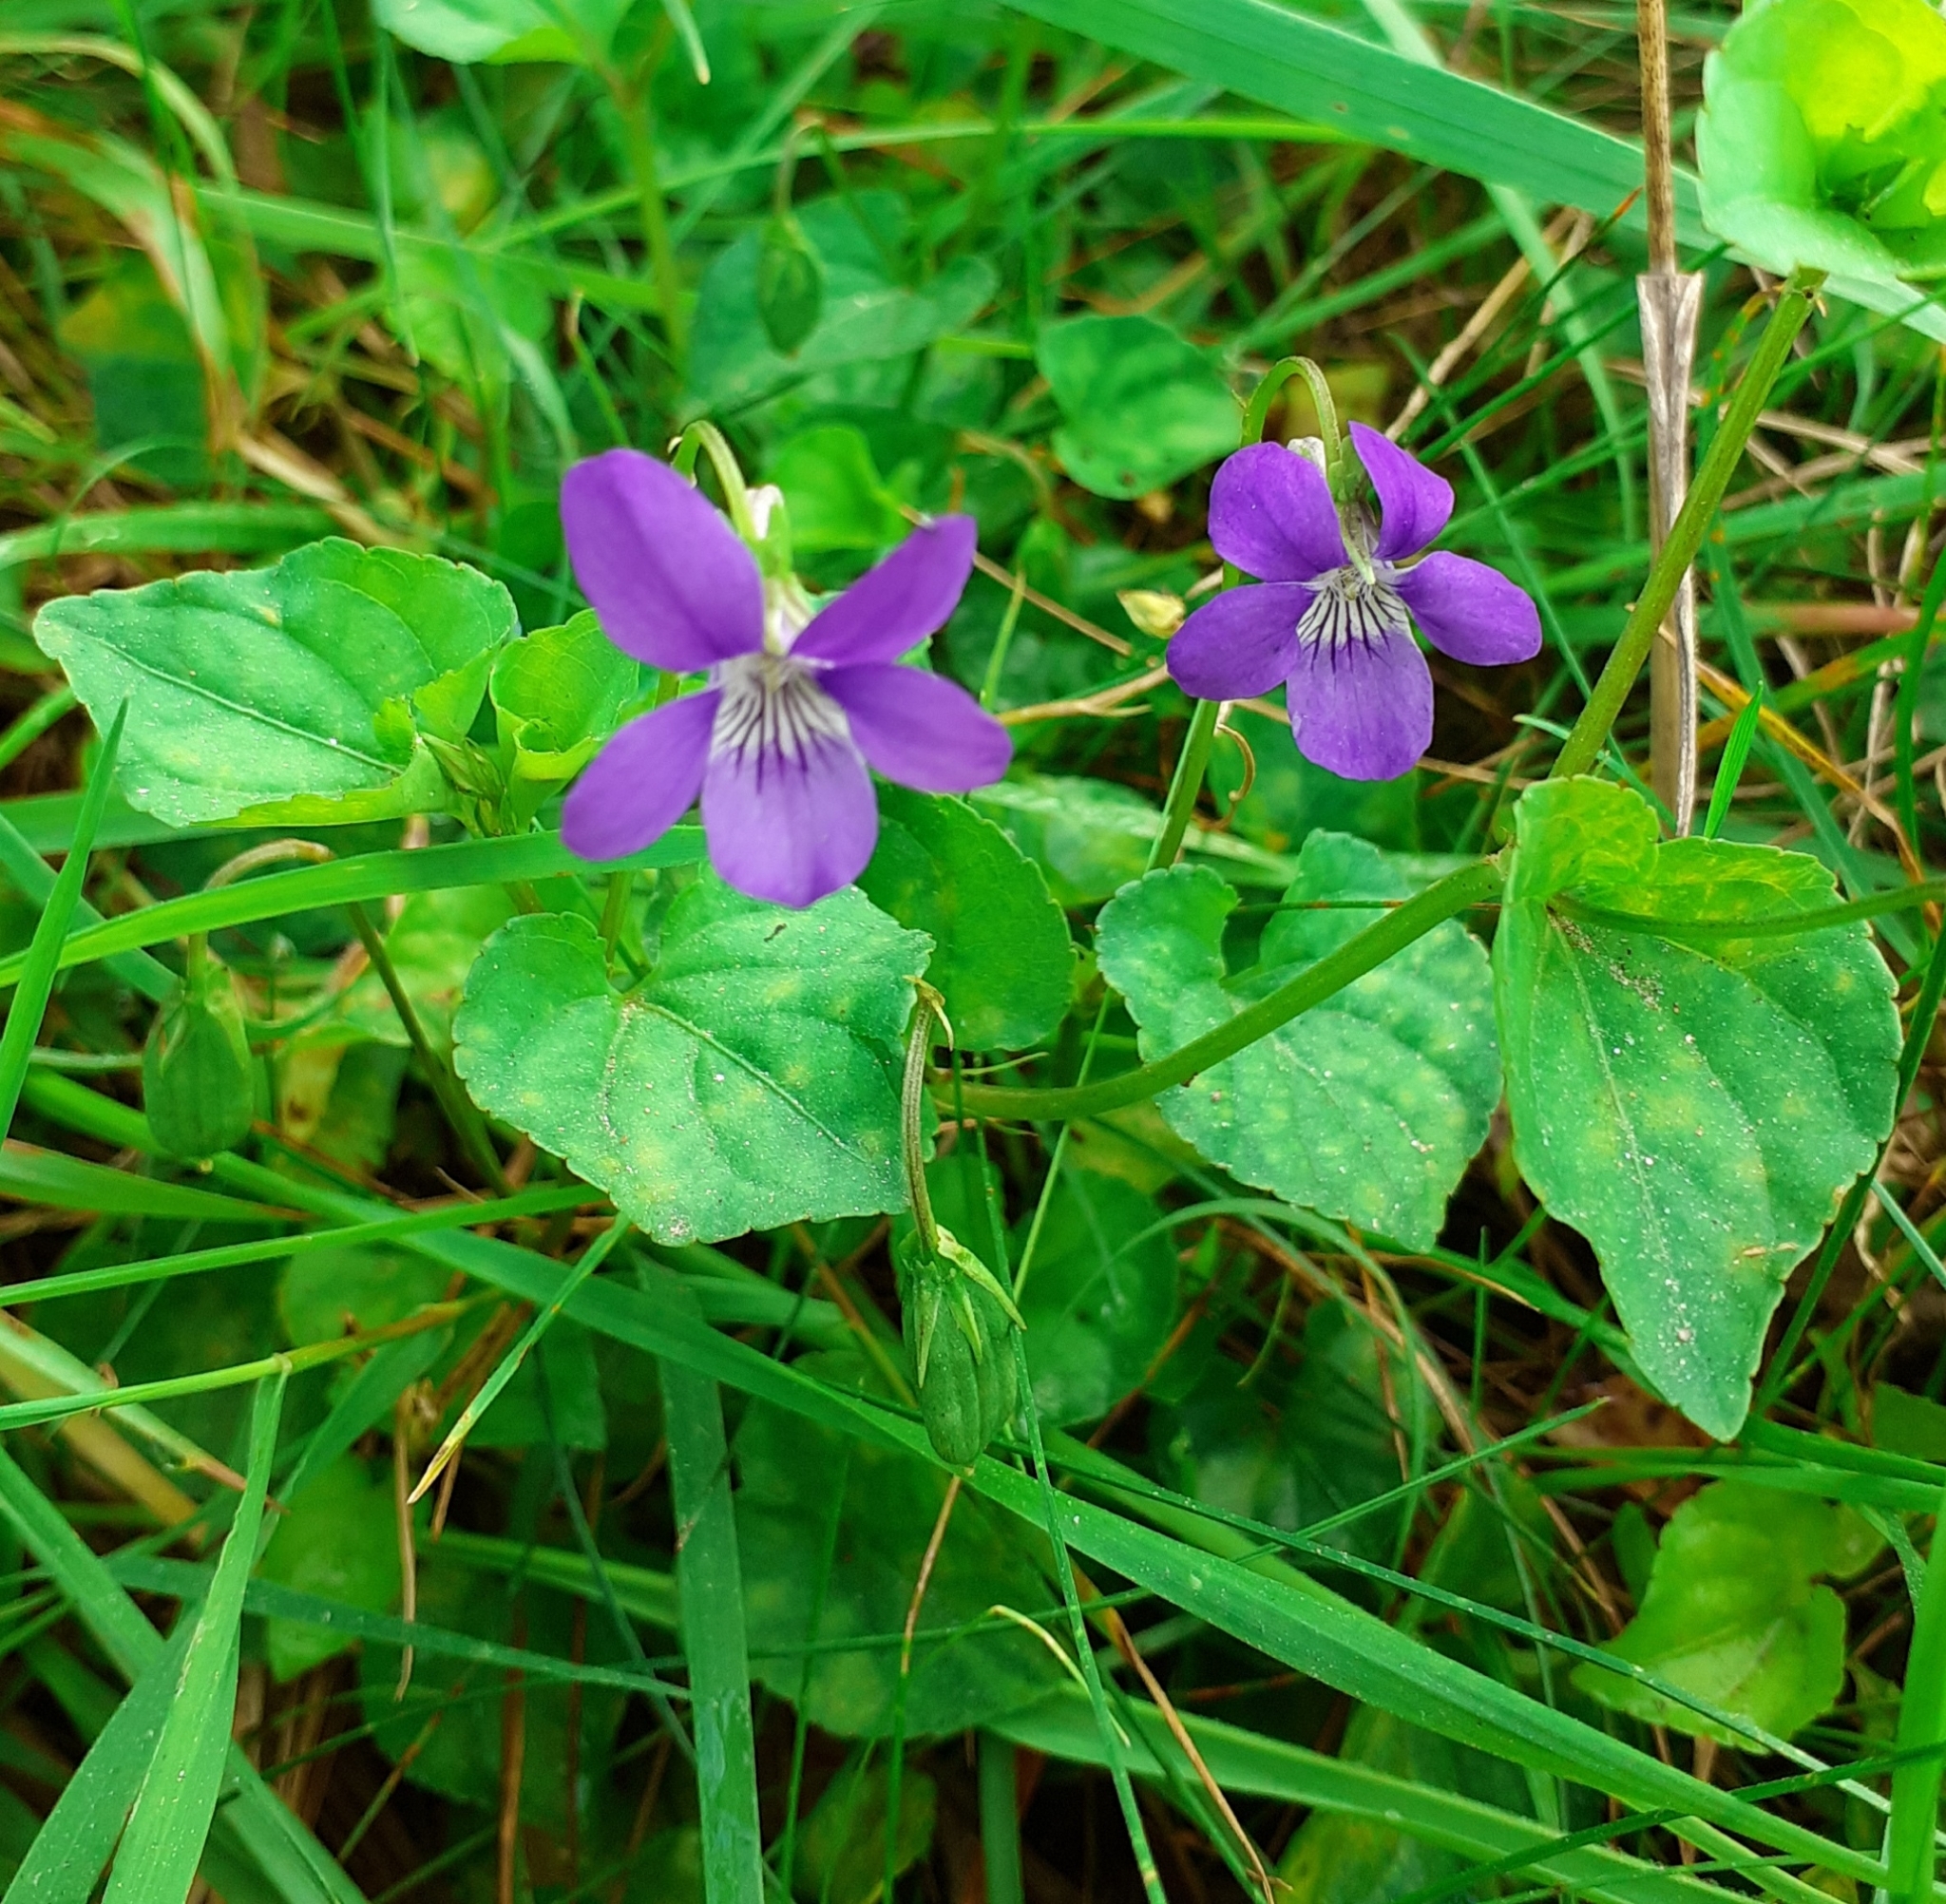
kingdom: Plantae
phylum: Tracheophyta
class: Magnoliopsida
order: Malpighiales
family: Violaceae
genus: Viola
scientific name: Viola riviniana
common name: Common dog-violet
